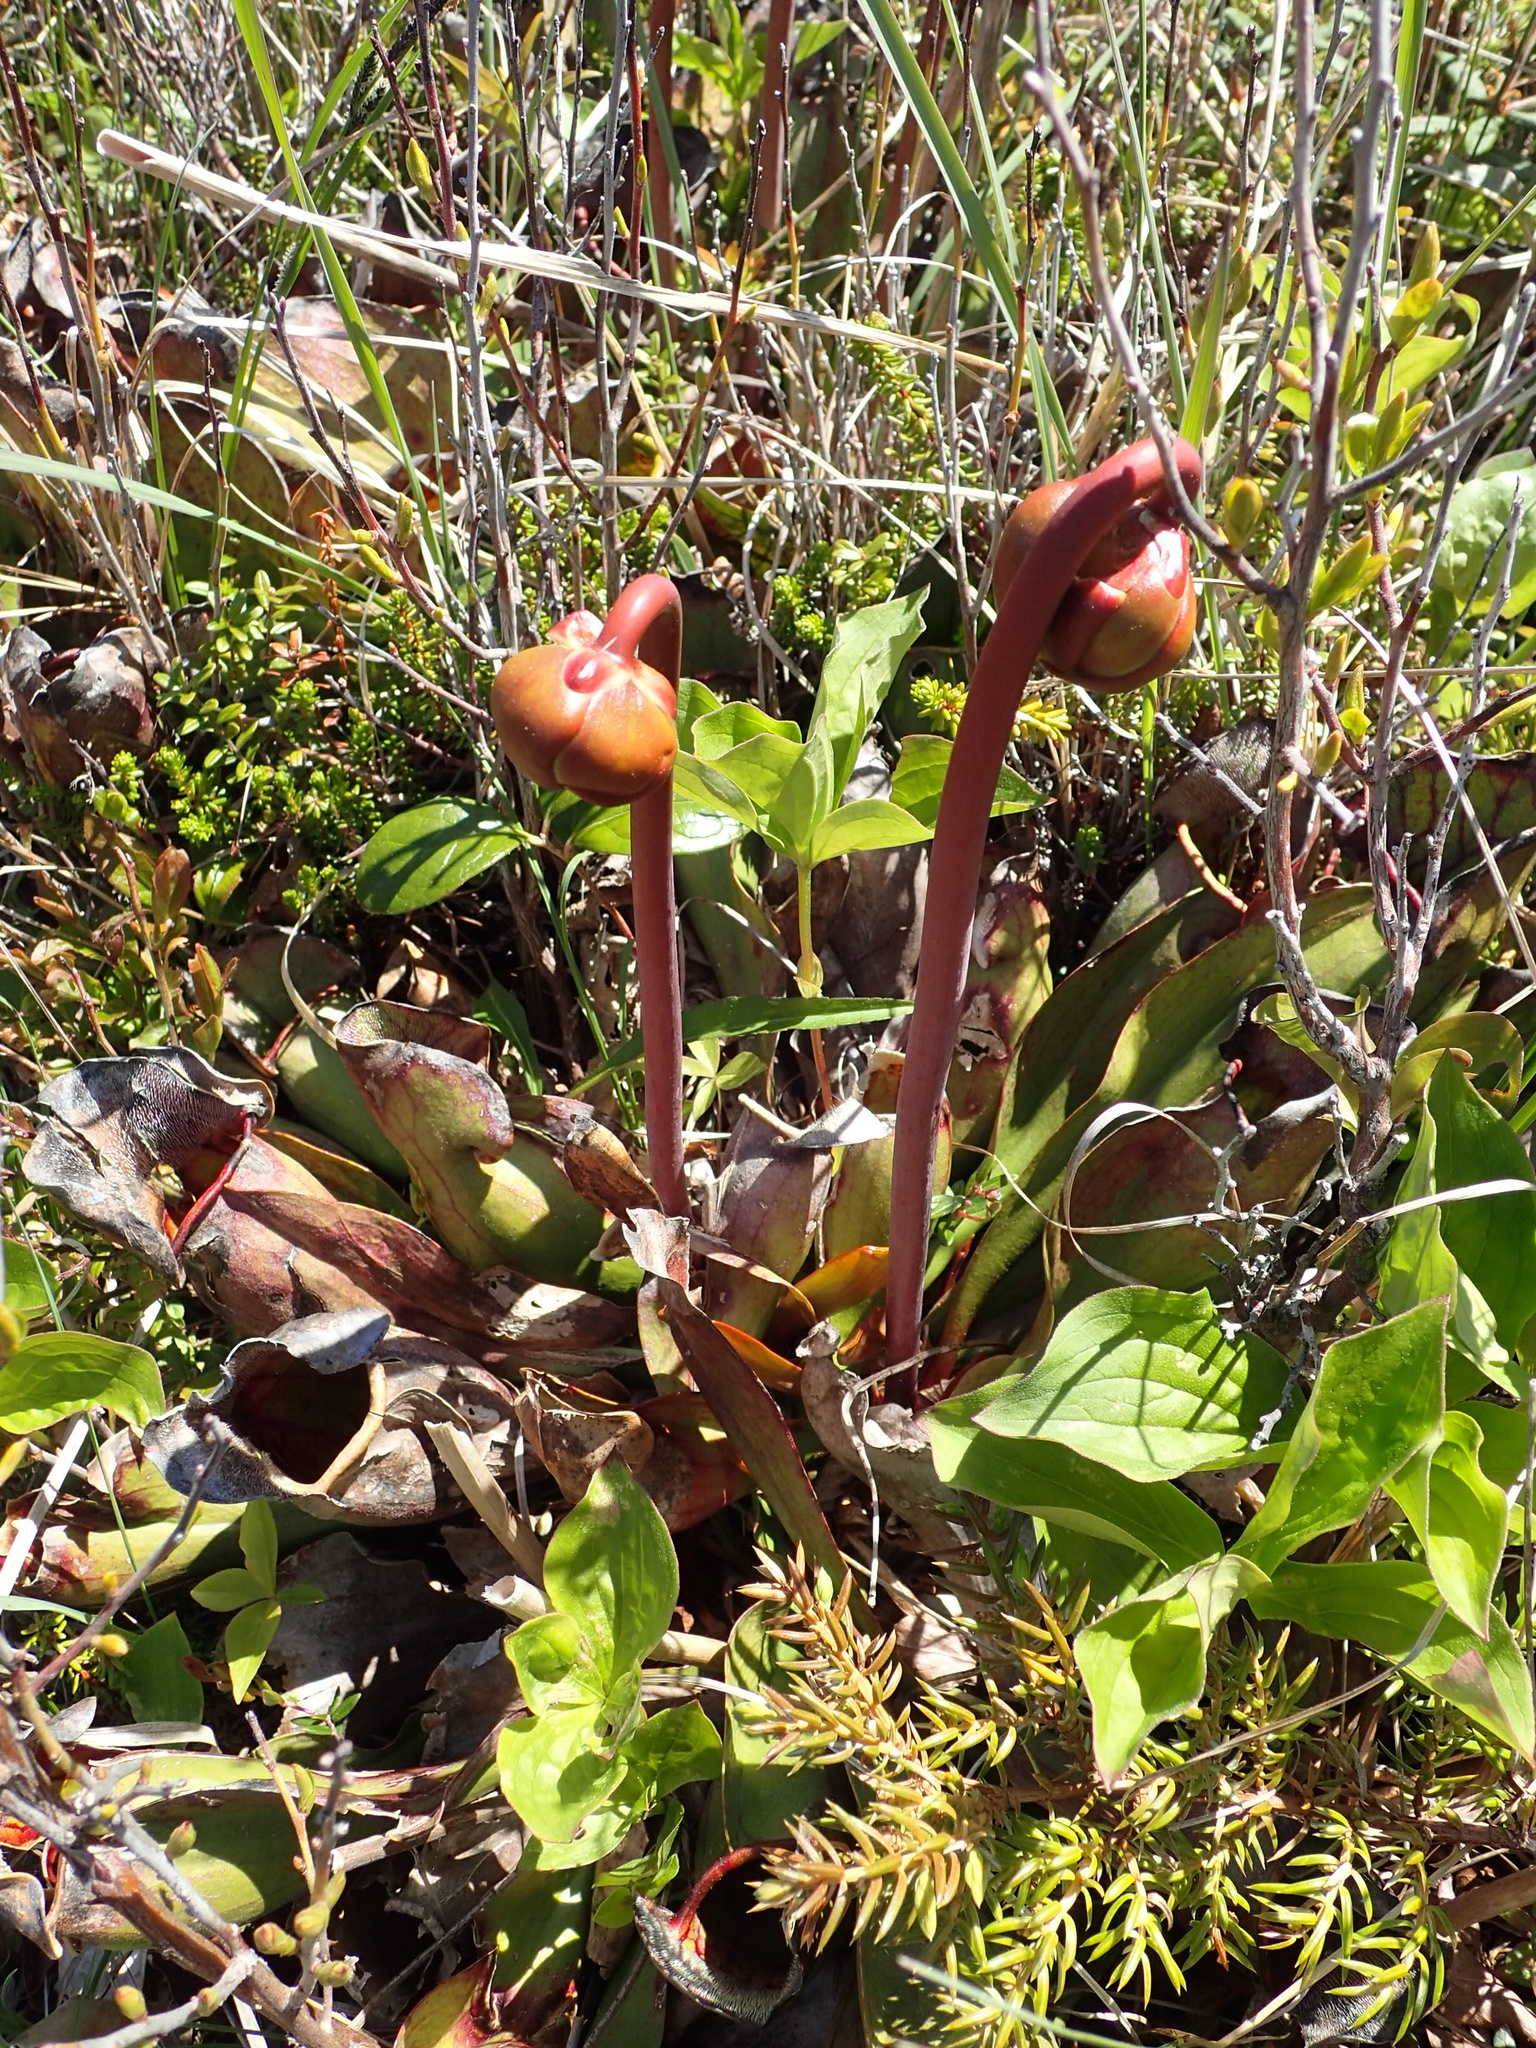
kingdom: Plantae
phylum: Tracheophyta
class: Magnoliopsida
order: Ericales
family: Sarraceniaceae
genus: Sarracenia
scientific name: Sarracenia purpurea
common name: Pitcherplant
